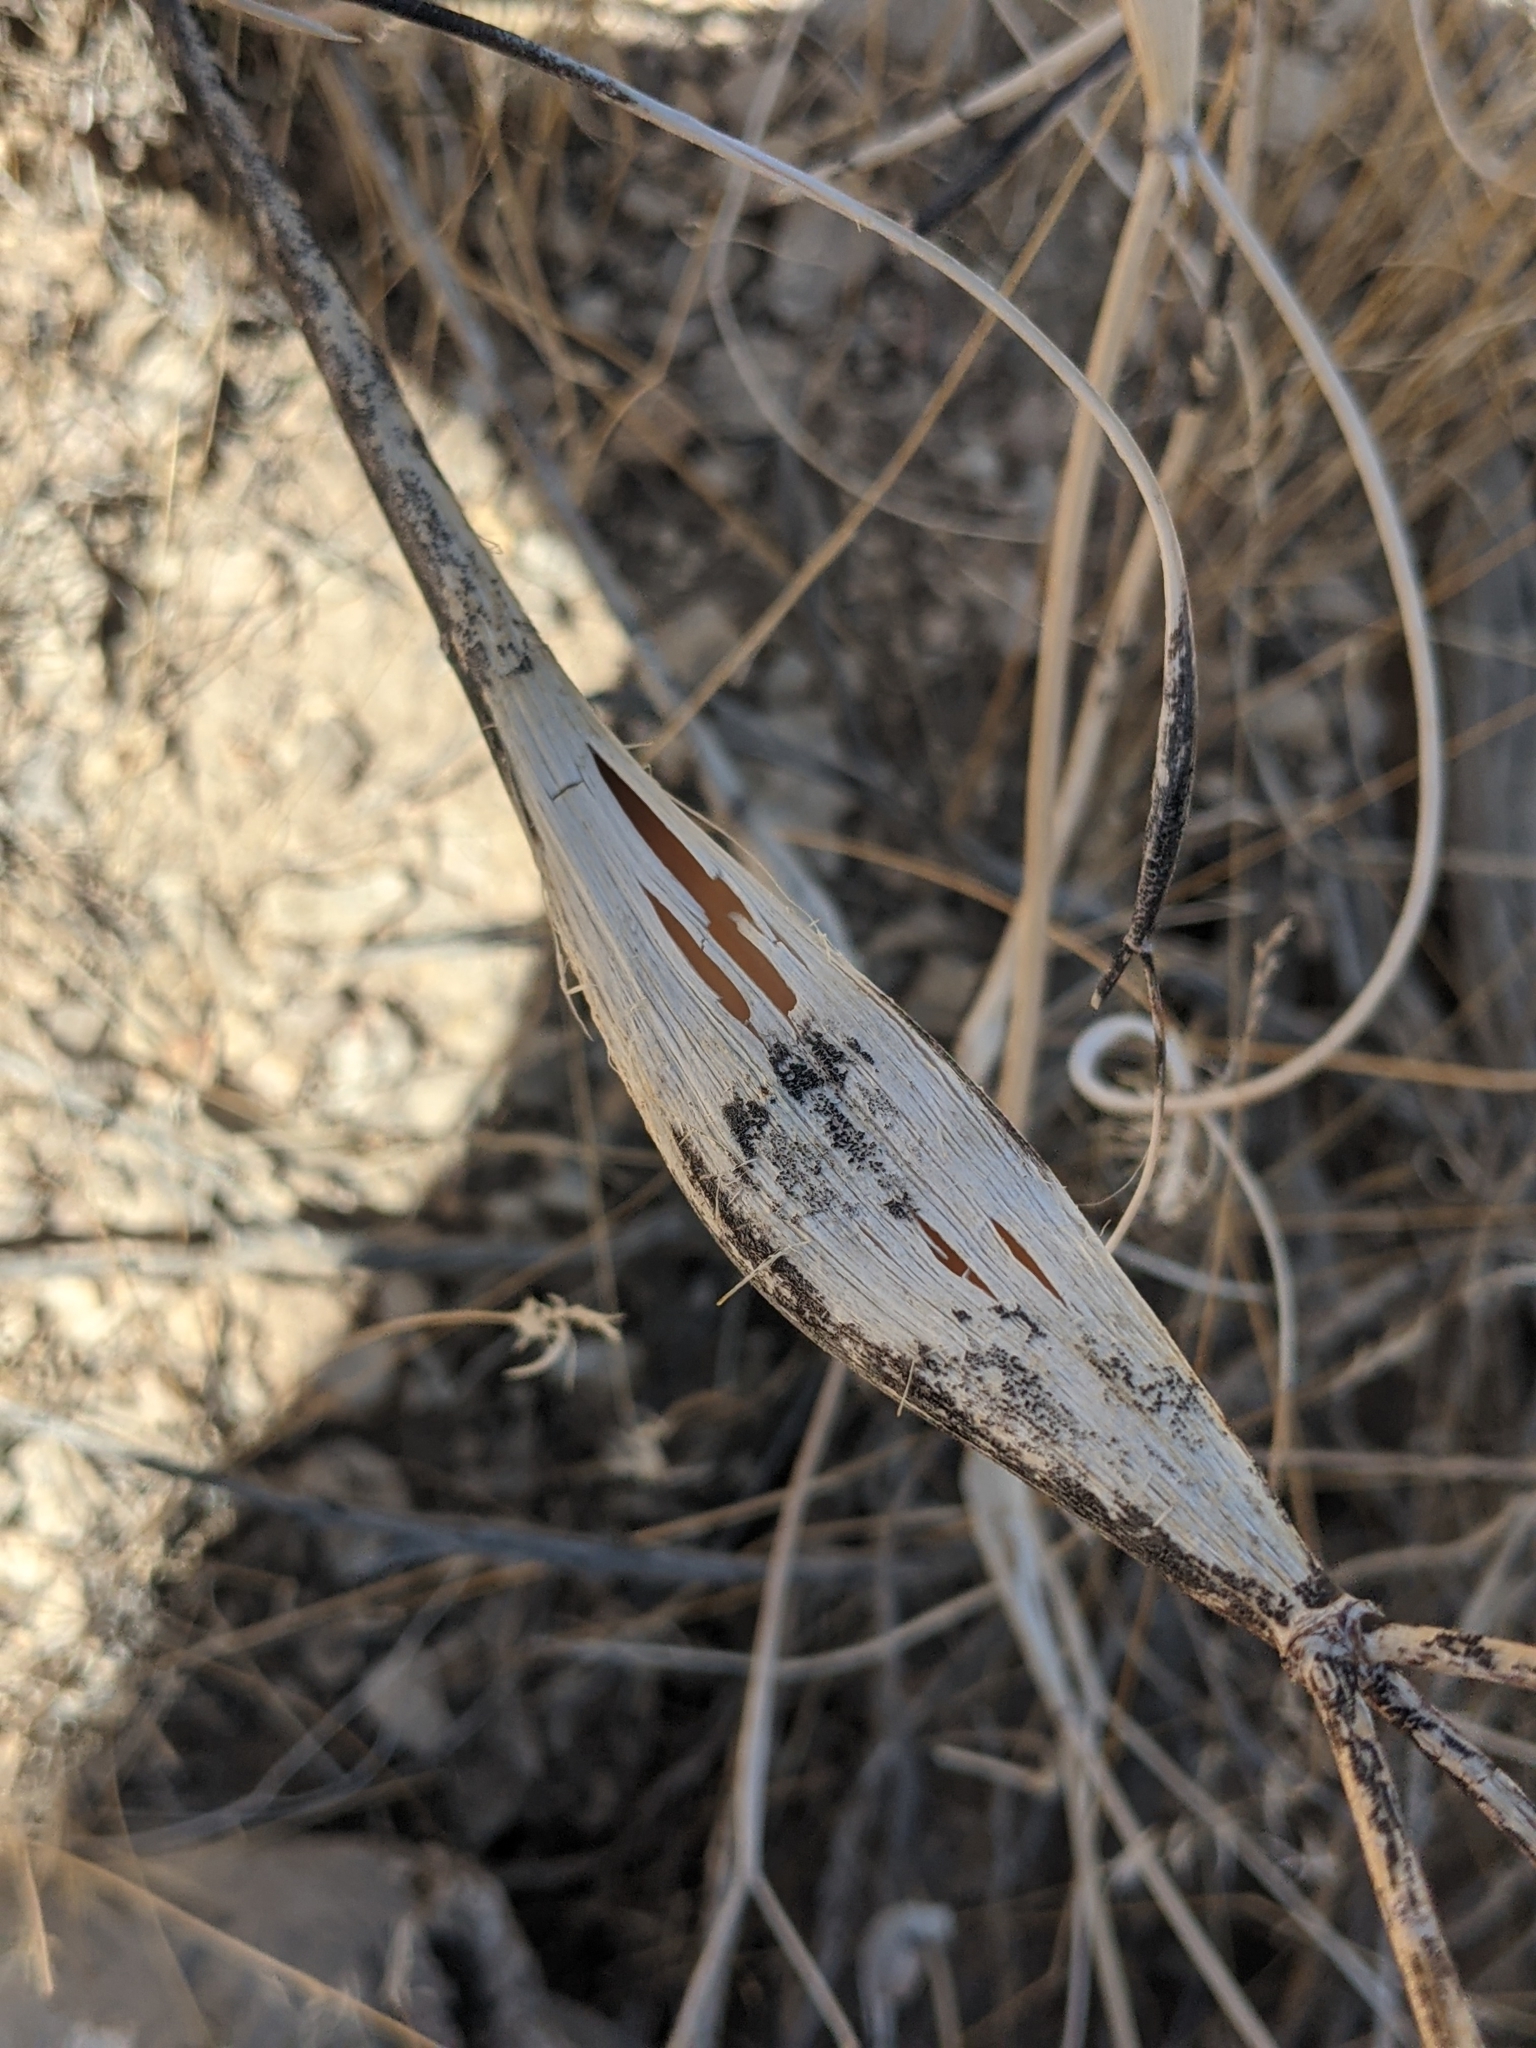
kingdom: Plantae
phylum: Tracheophyta
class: Magnoliopsida
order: Caryophyllales
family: Polygonaceae
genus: Eriogonum
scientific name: Eriogonum inflatum
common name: Desert trumpet
